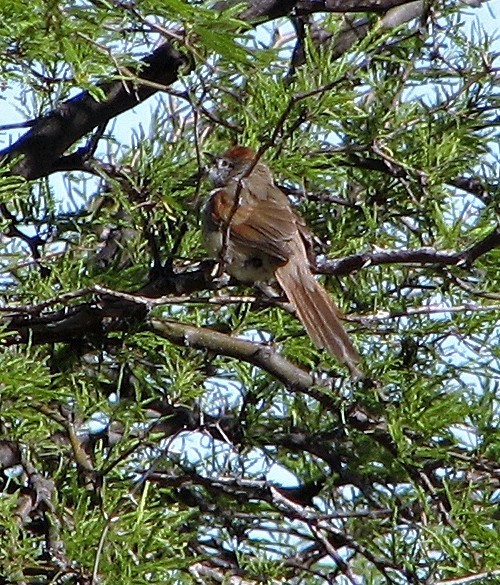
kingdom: Animalia
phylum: Chordata
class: Aves
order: Passeriformes
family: Furnariidae
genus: Synallaxis
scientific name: Synallaxis albescens
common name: Pale-breasted spinetail
